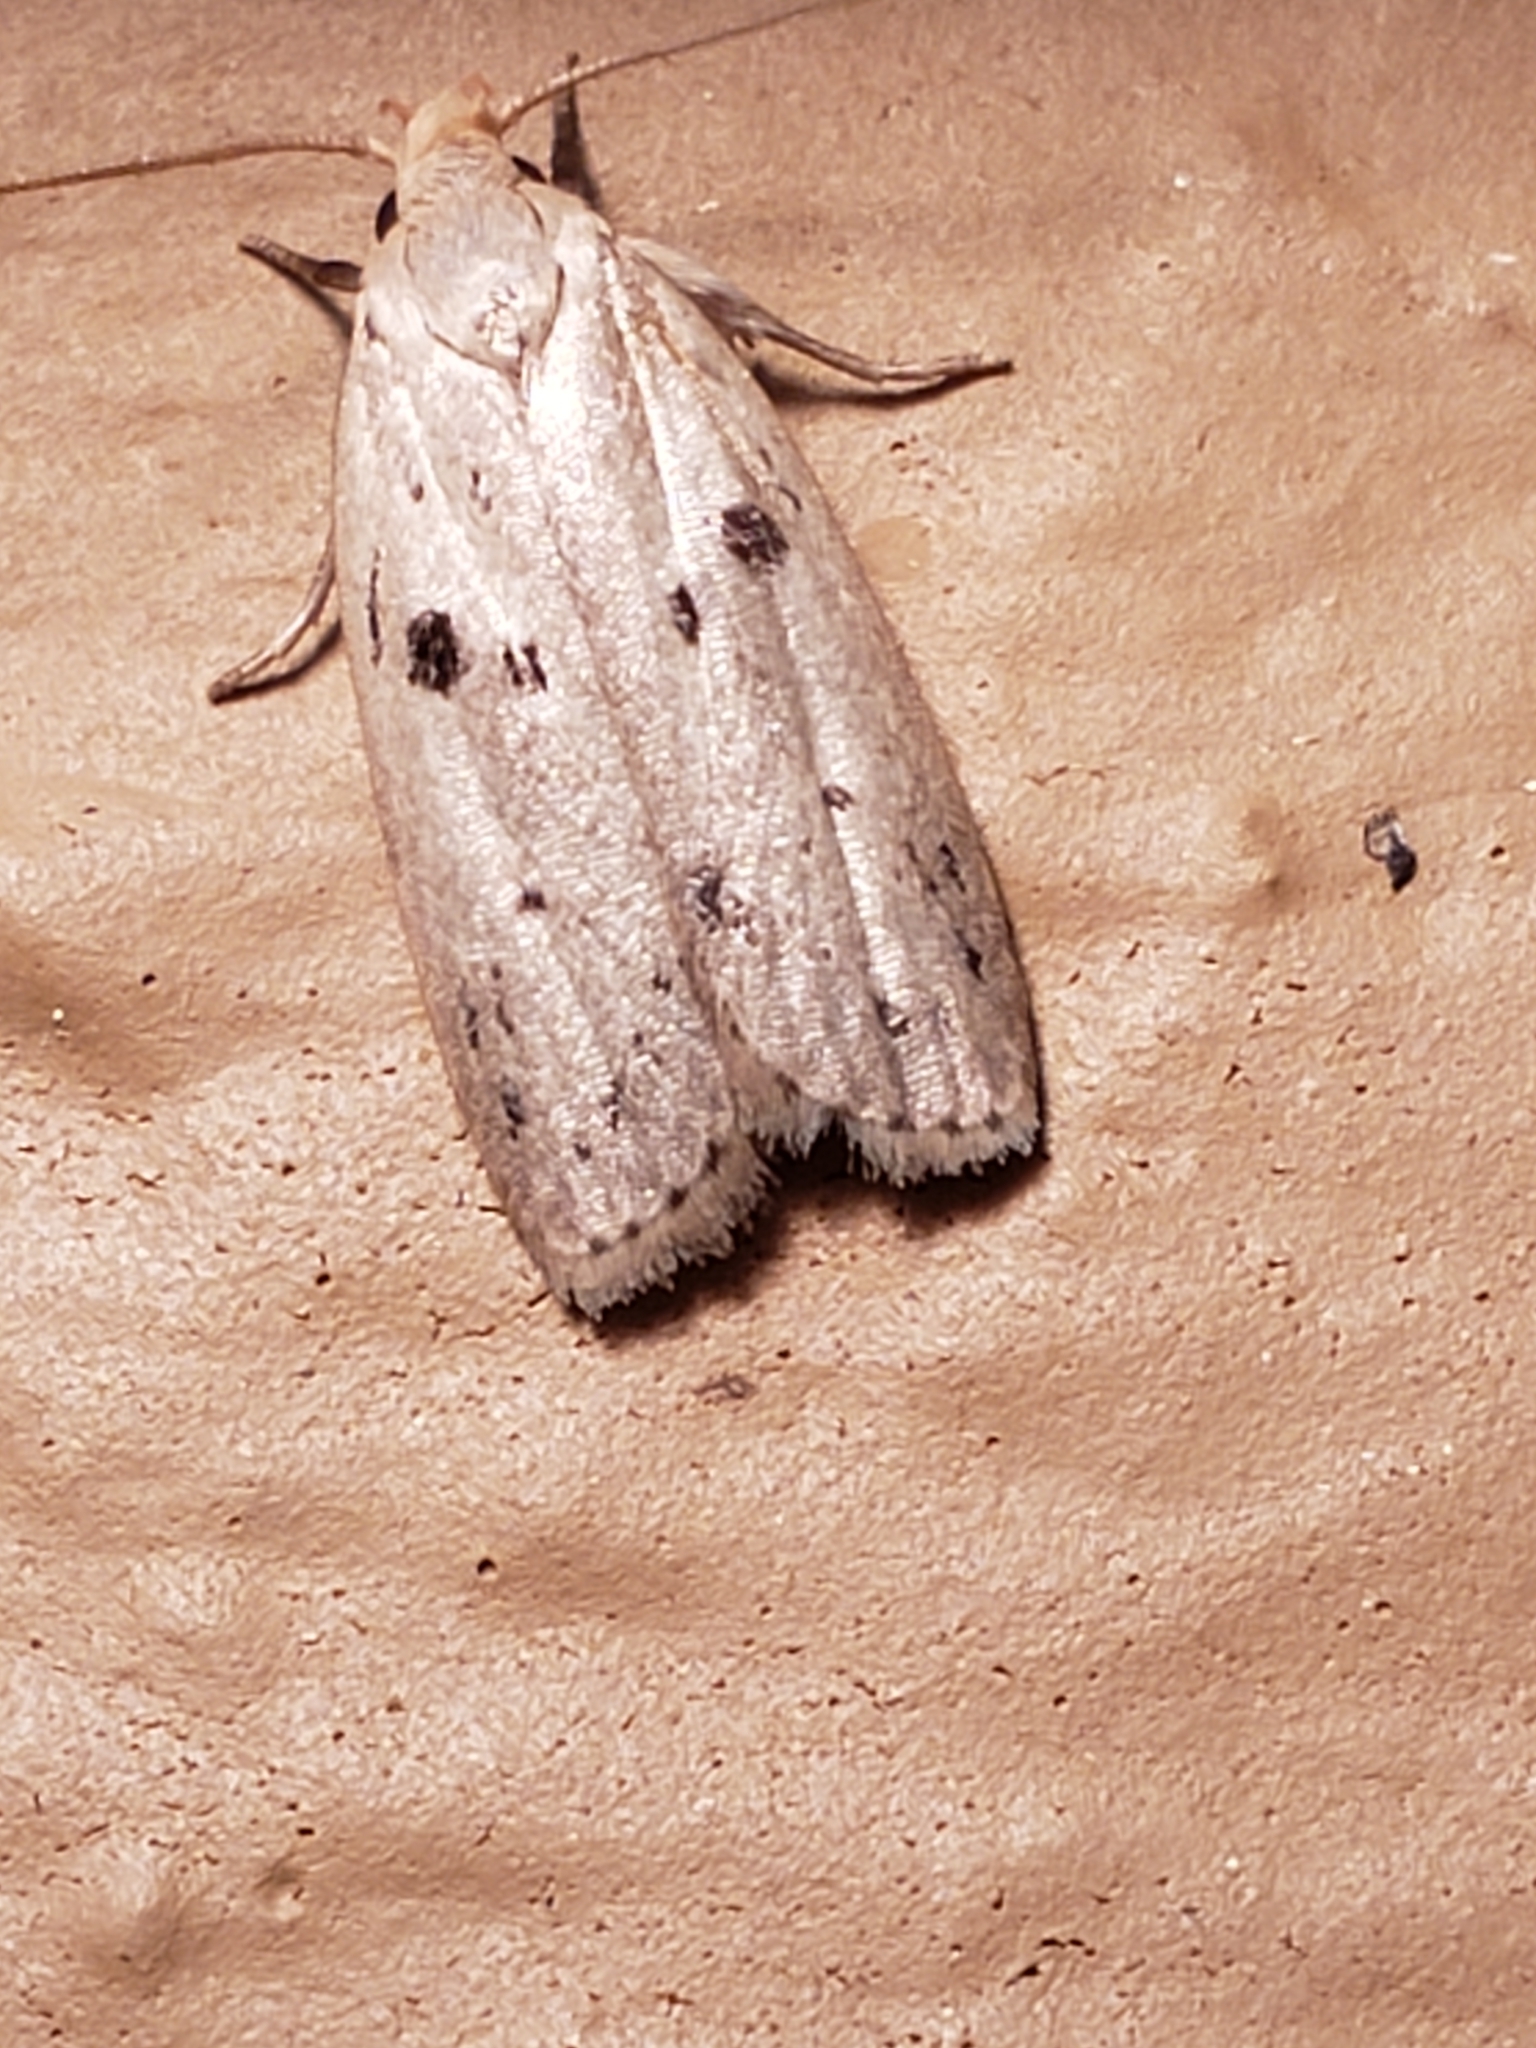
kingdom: Animalia
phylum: Arthropoda
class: Insecta
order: Lepidoptera
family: Peleopodidae
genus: Scythropiodes
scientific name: Scythropiodes issikii
